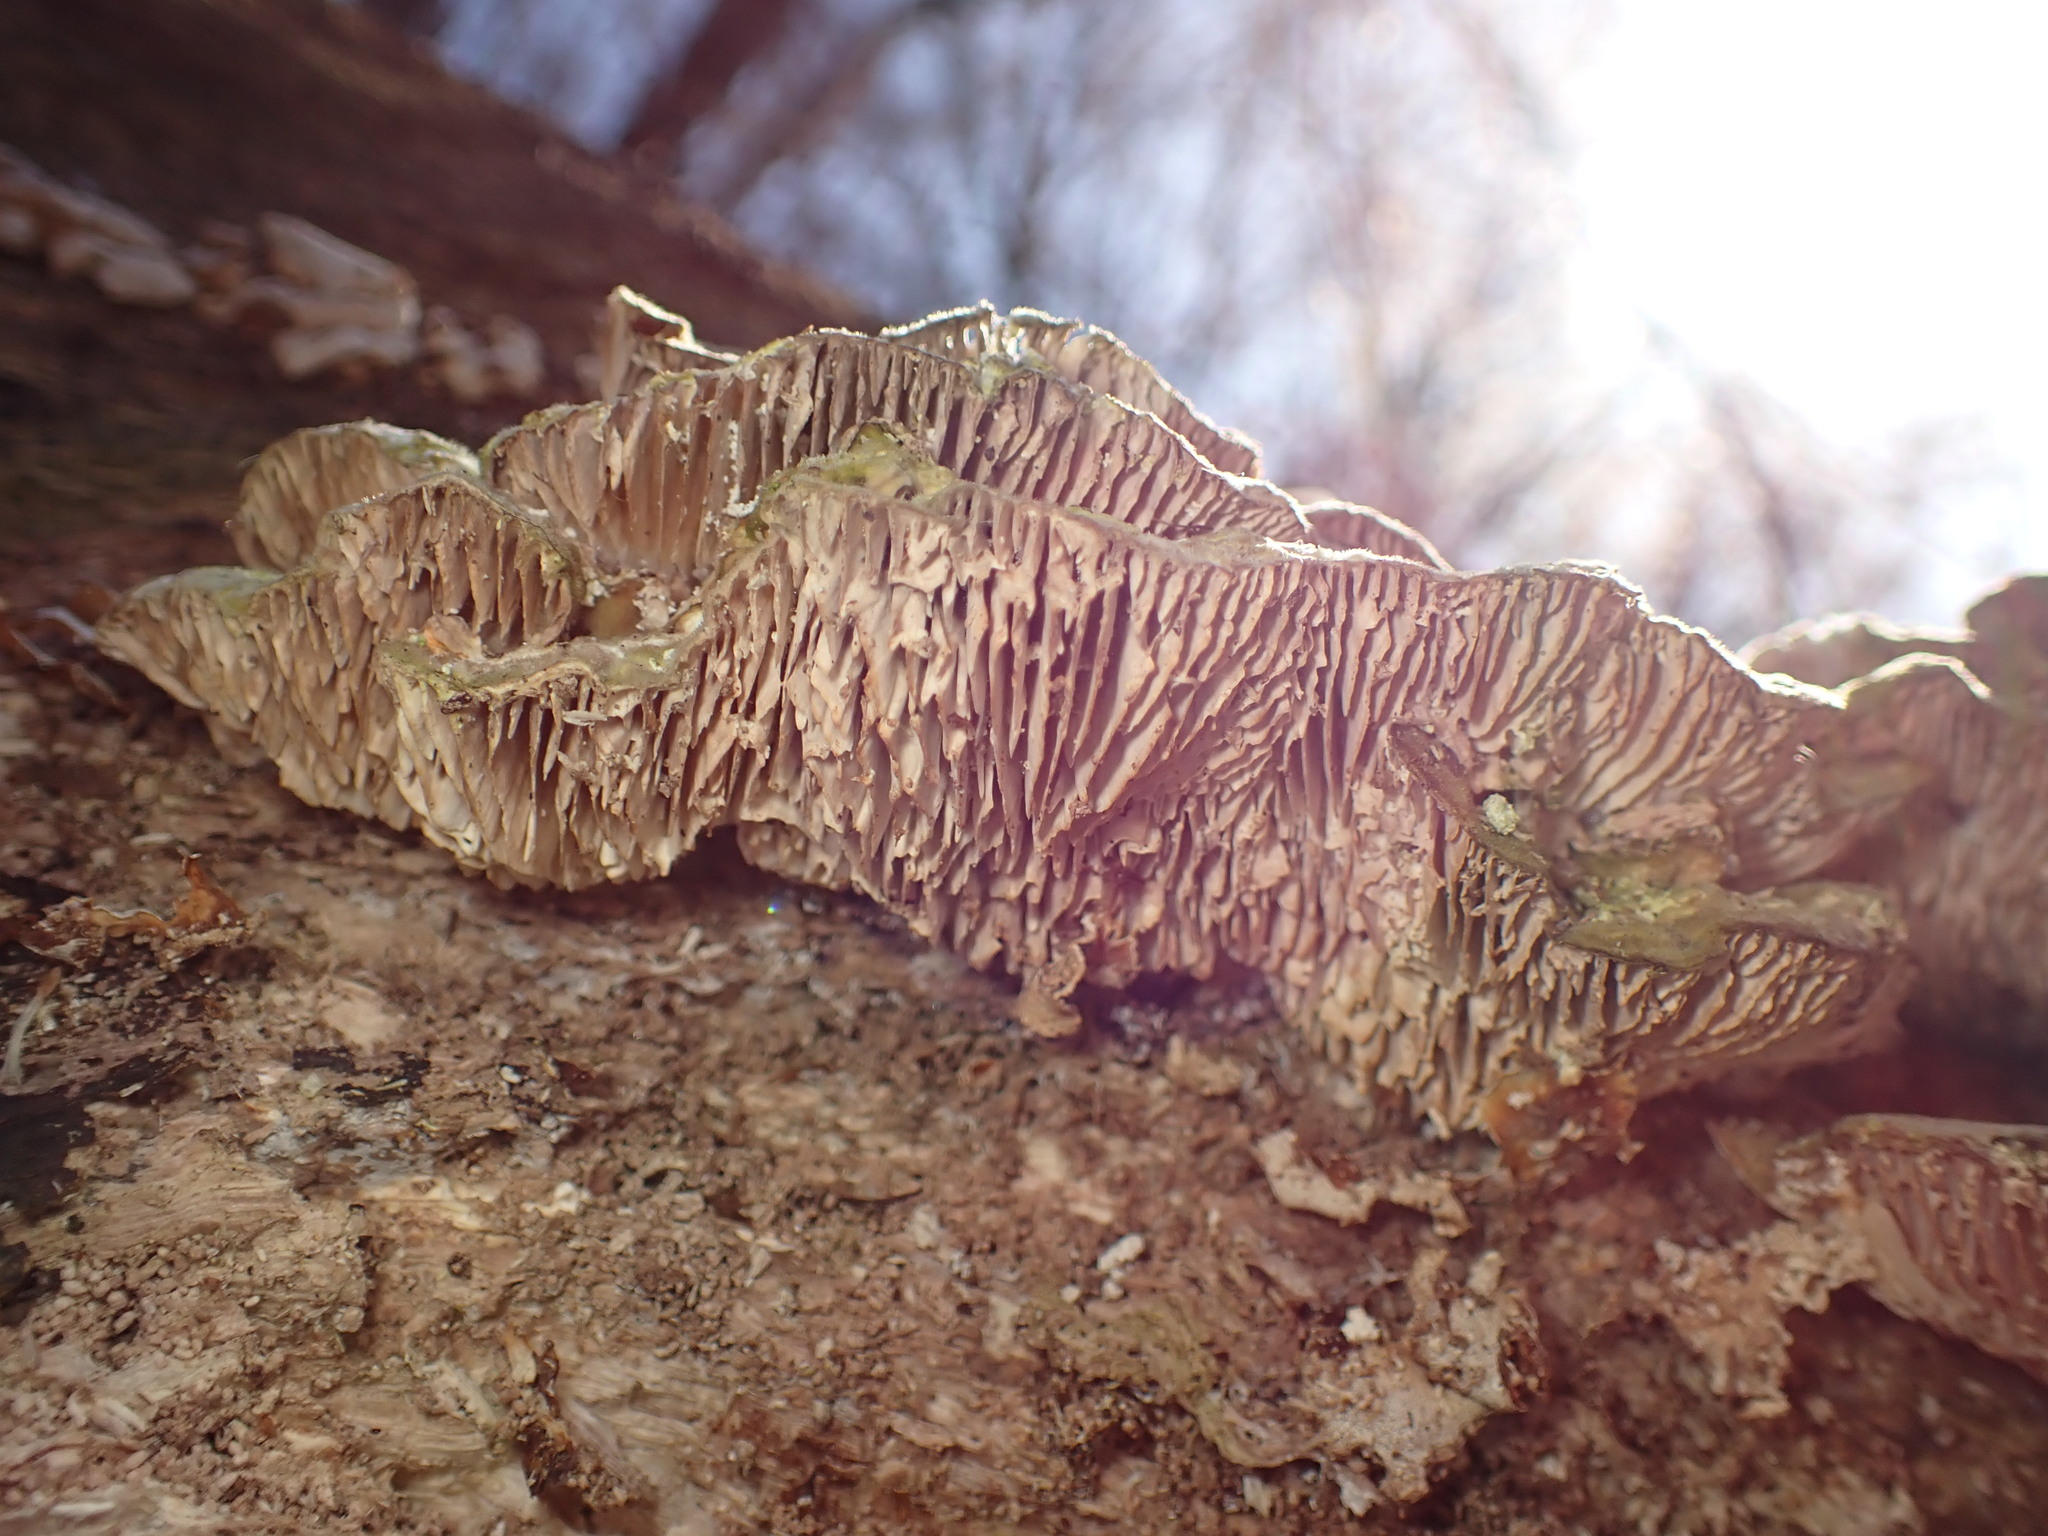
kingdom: Fungi
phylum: Basidiomycota
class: Agaricomycetes
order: Polyporales
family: Polyporaceae
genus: Lenzites
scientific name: Lenzites betulinus
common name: Birch mazegill
